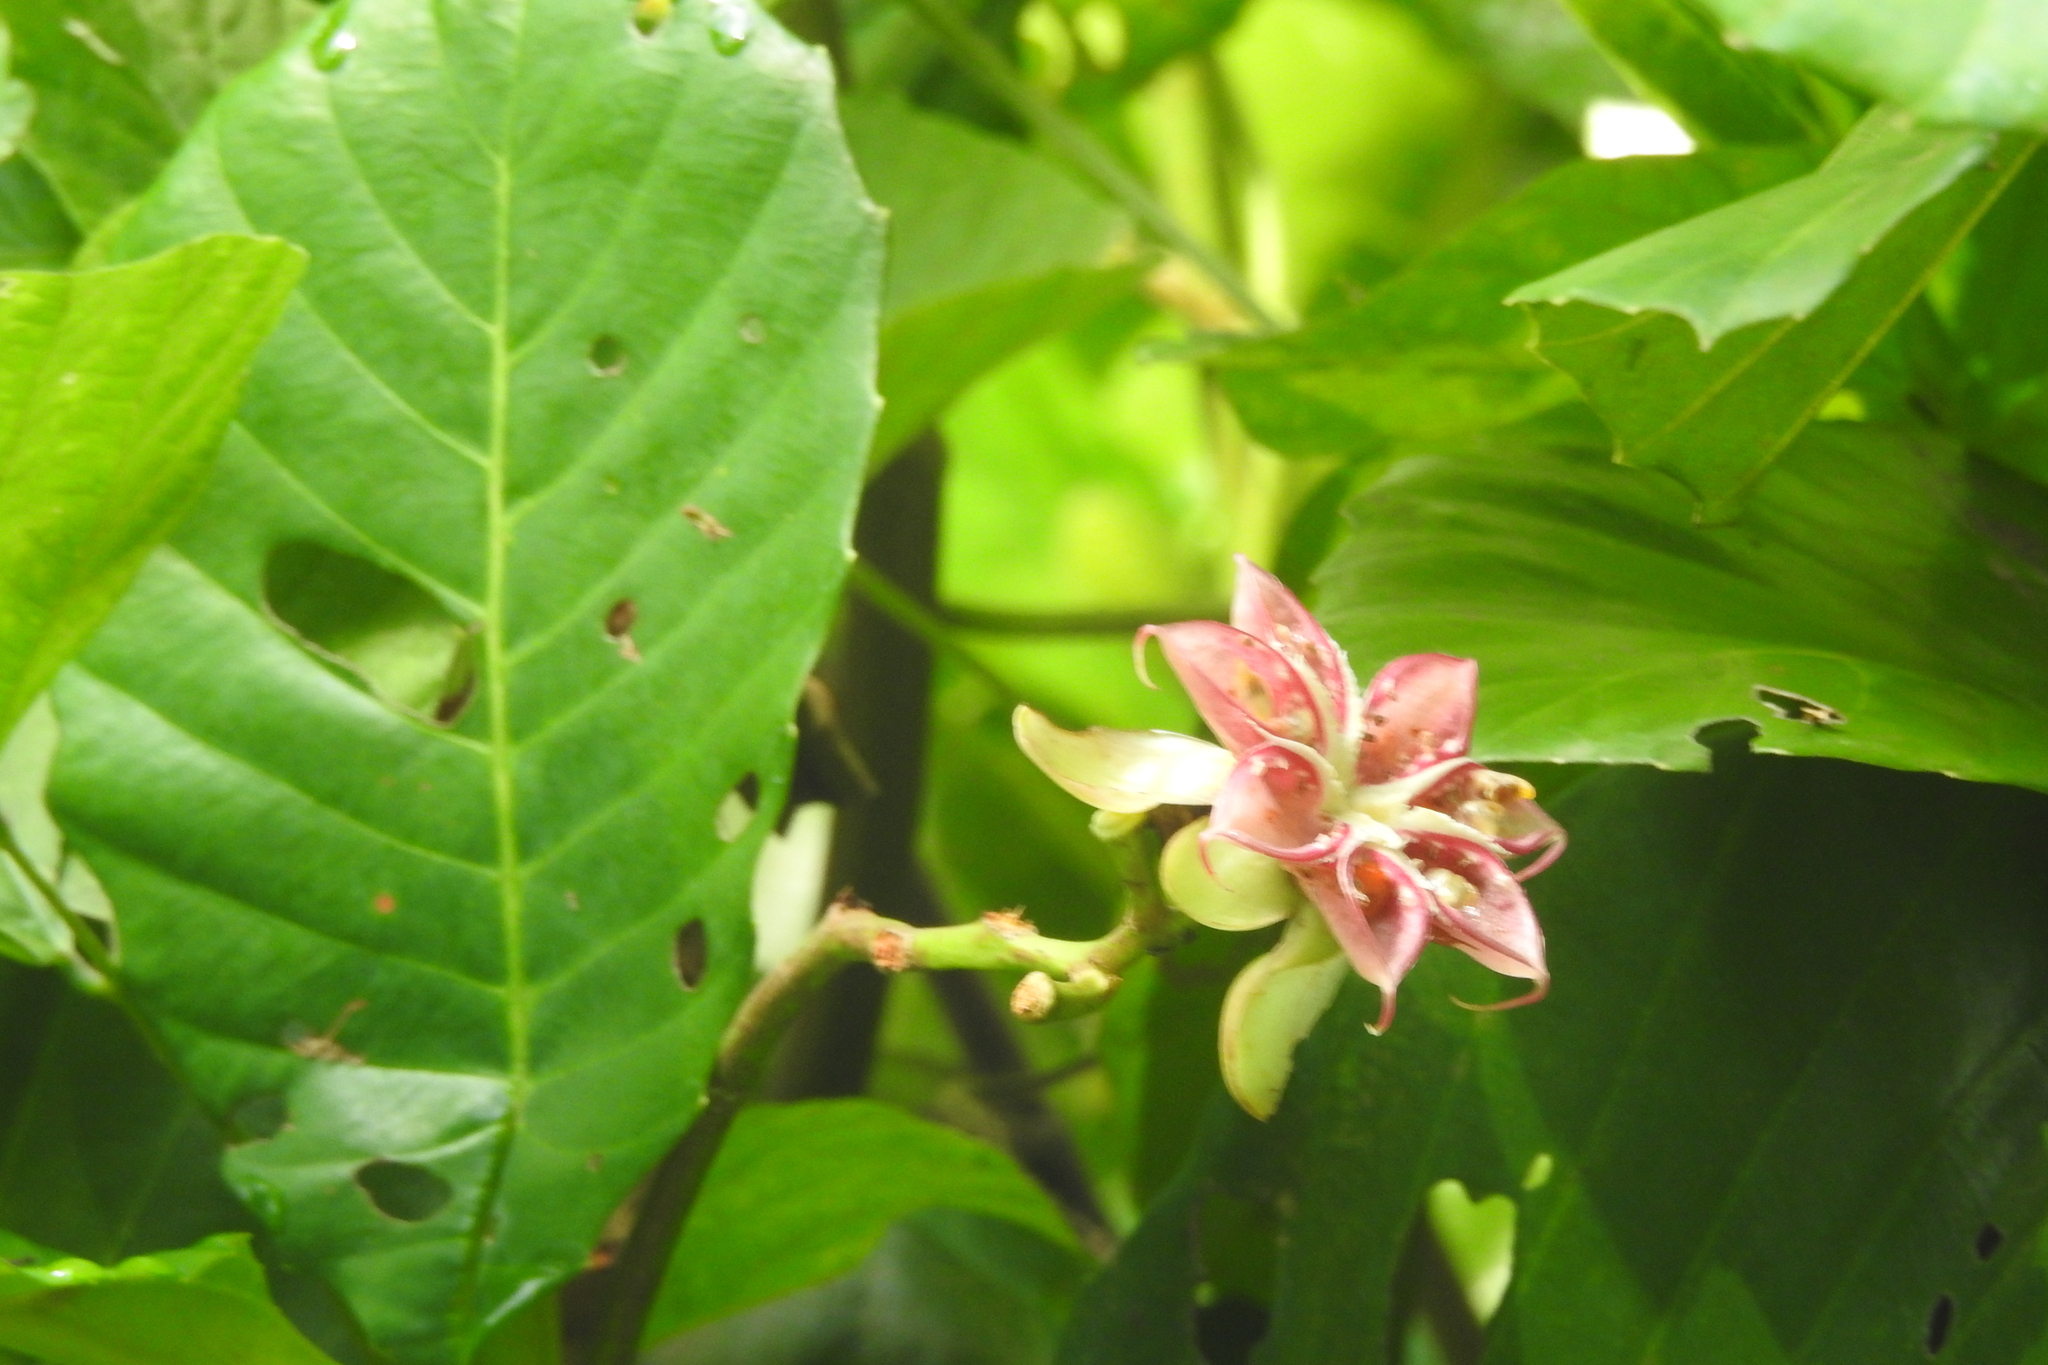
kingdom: Plantae
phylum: Tracheophyta
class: Magnoliopsida
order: Dilleniales
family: Dilleniaceae
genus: Dillenia
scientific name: Dillenia suffruticosa
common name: Shrubby dillenia
